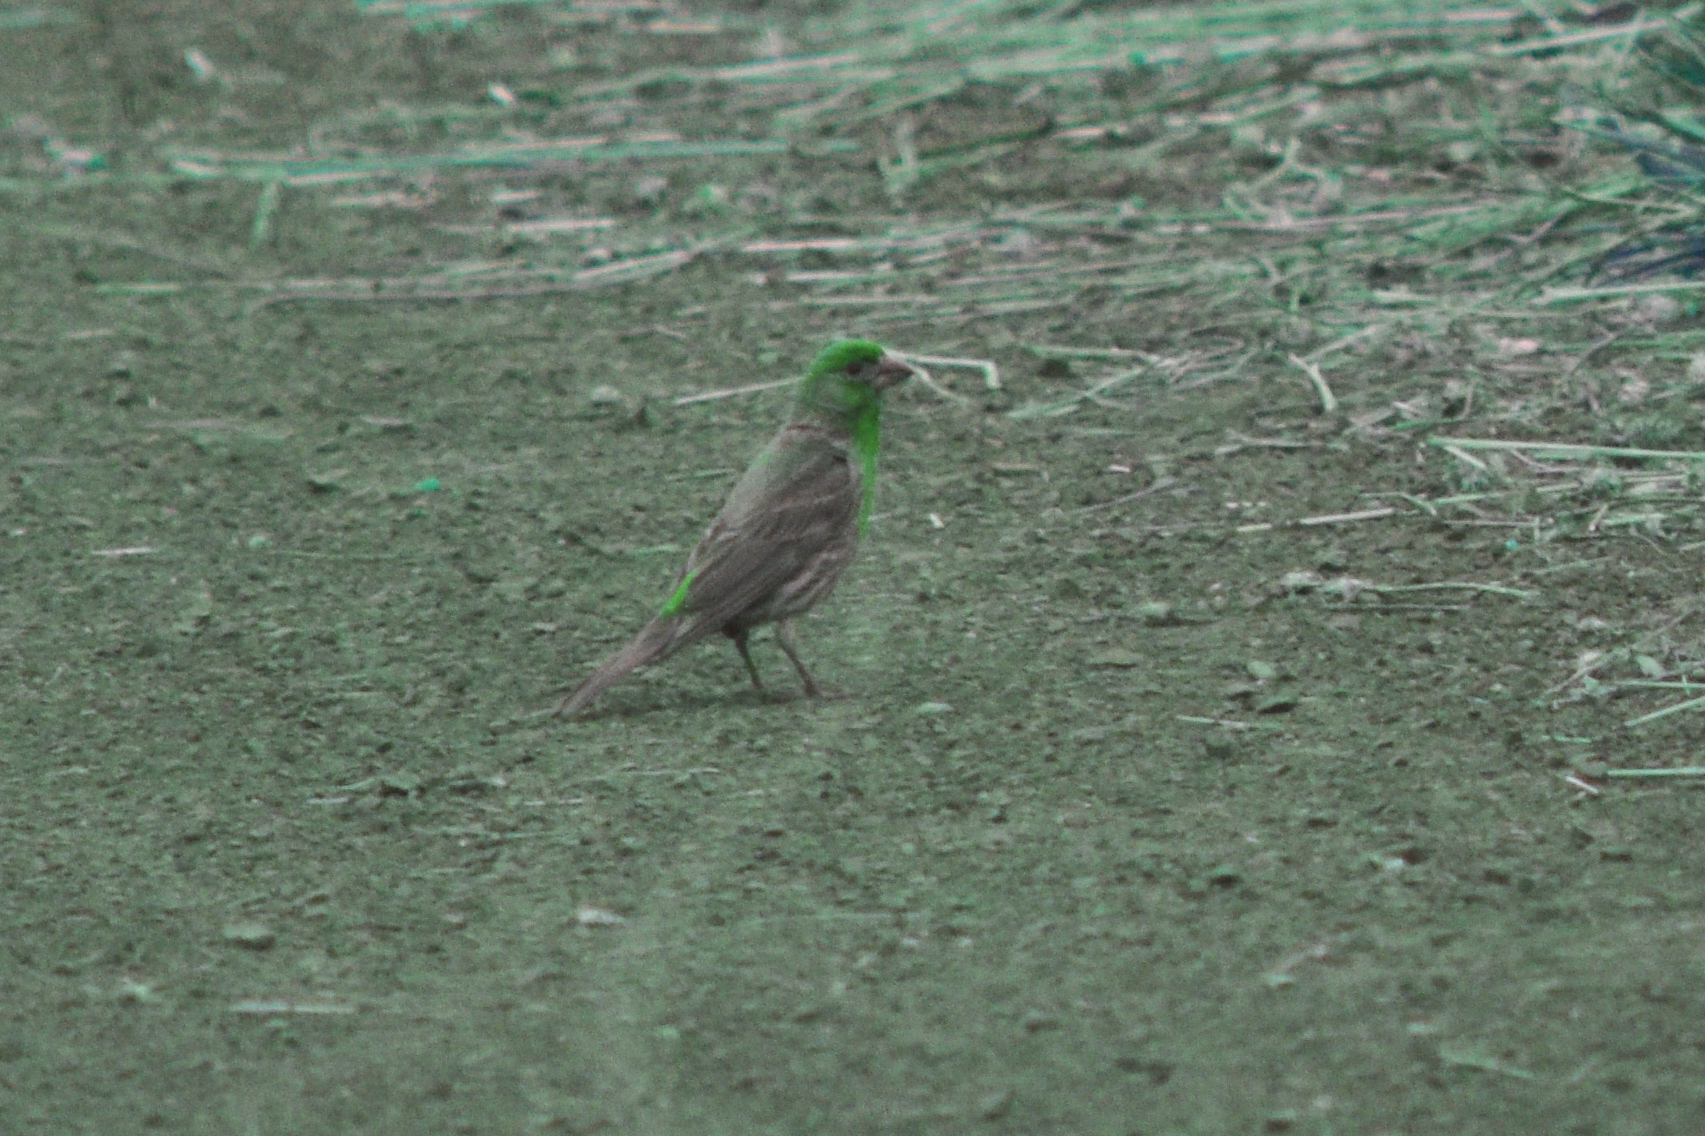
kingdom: Animalia
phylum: Chordata
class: Aves
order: Passeriformes
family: Fringillidae
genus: Haemorhous
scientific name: Haemorhous mexicanus
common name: House finch
